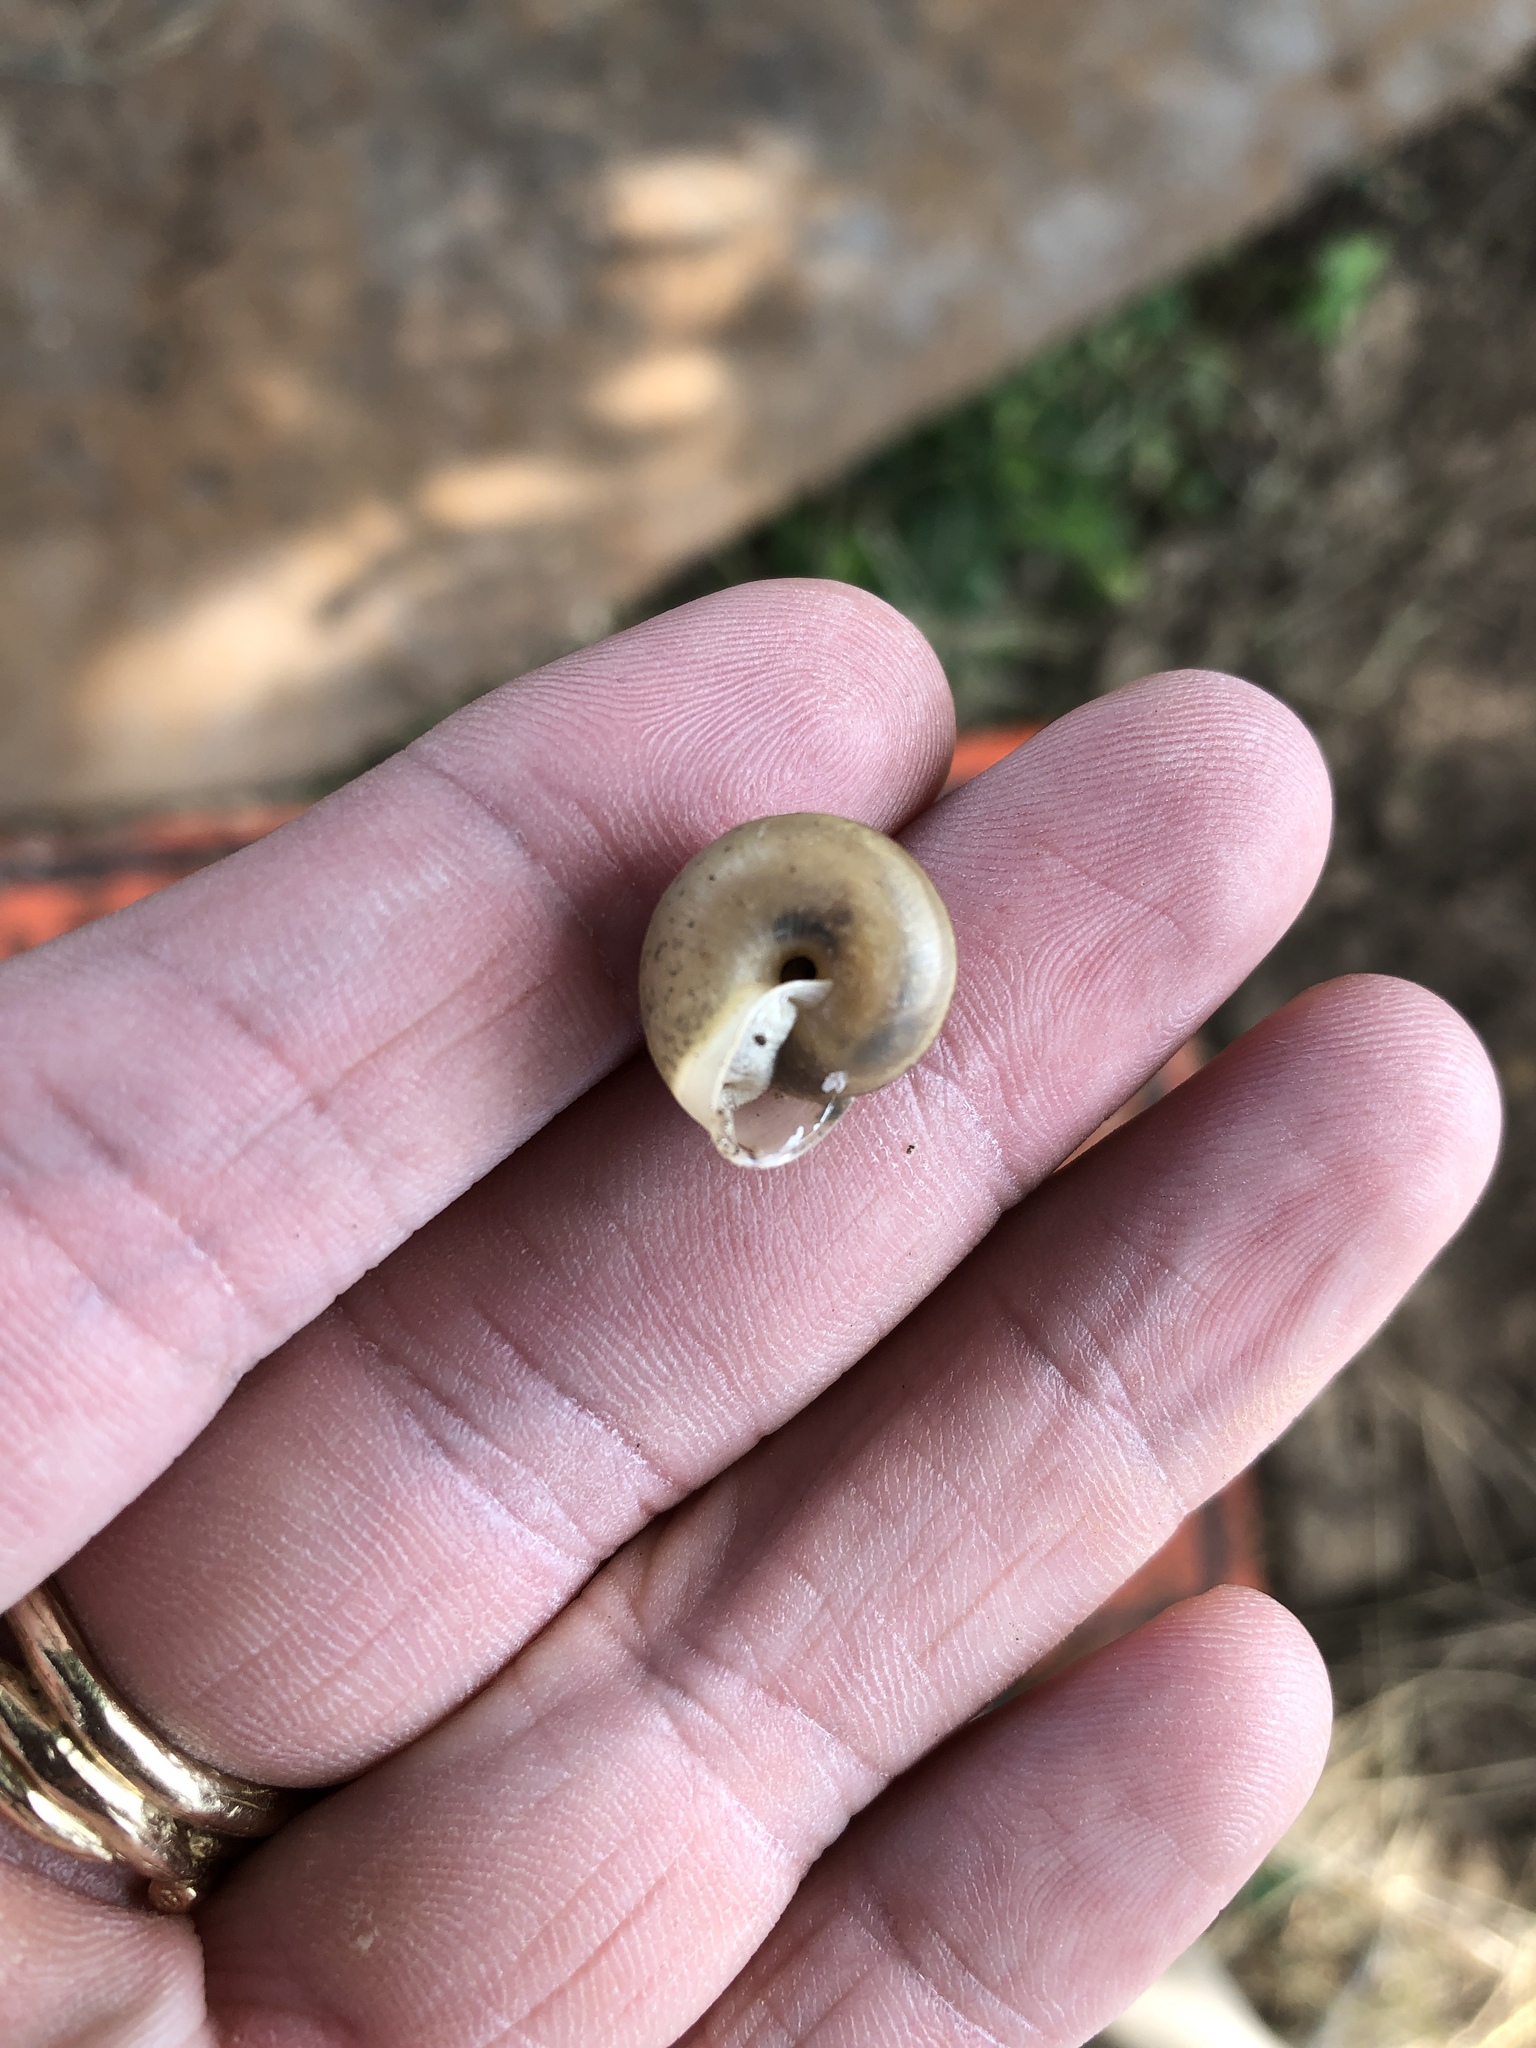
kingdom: Animalia
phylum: Mollusca
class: Gastropoda
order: Stylommatophora
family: Camaenidae
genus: Bradybaena
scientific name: Bradybaena similaris
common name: Asian trampsnail
